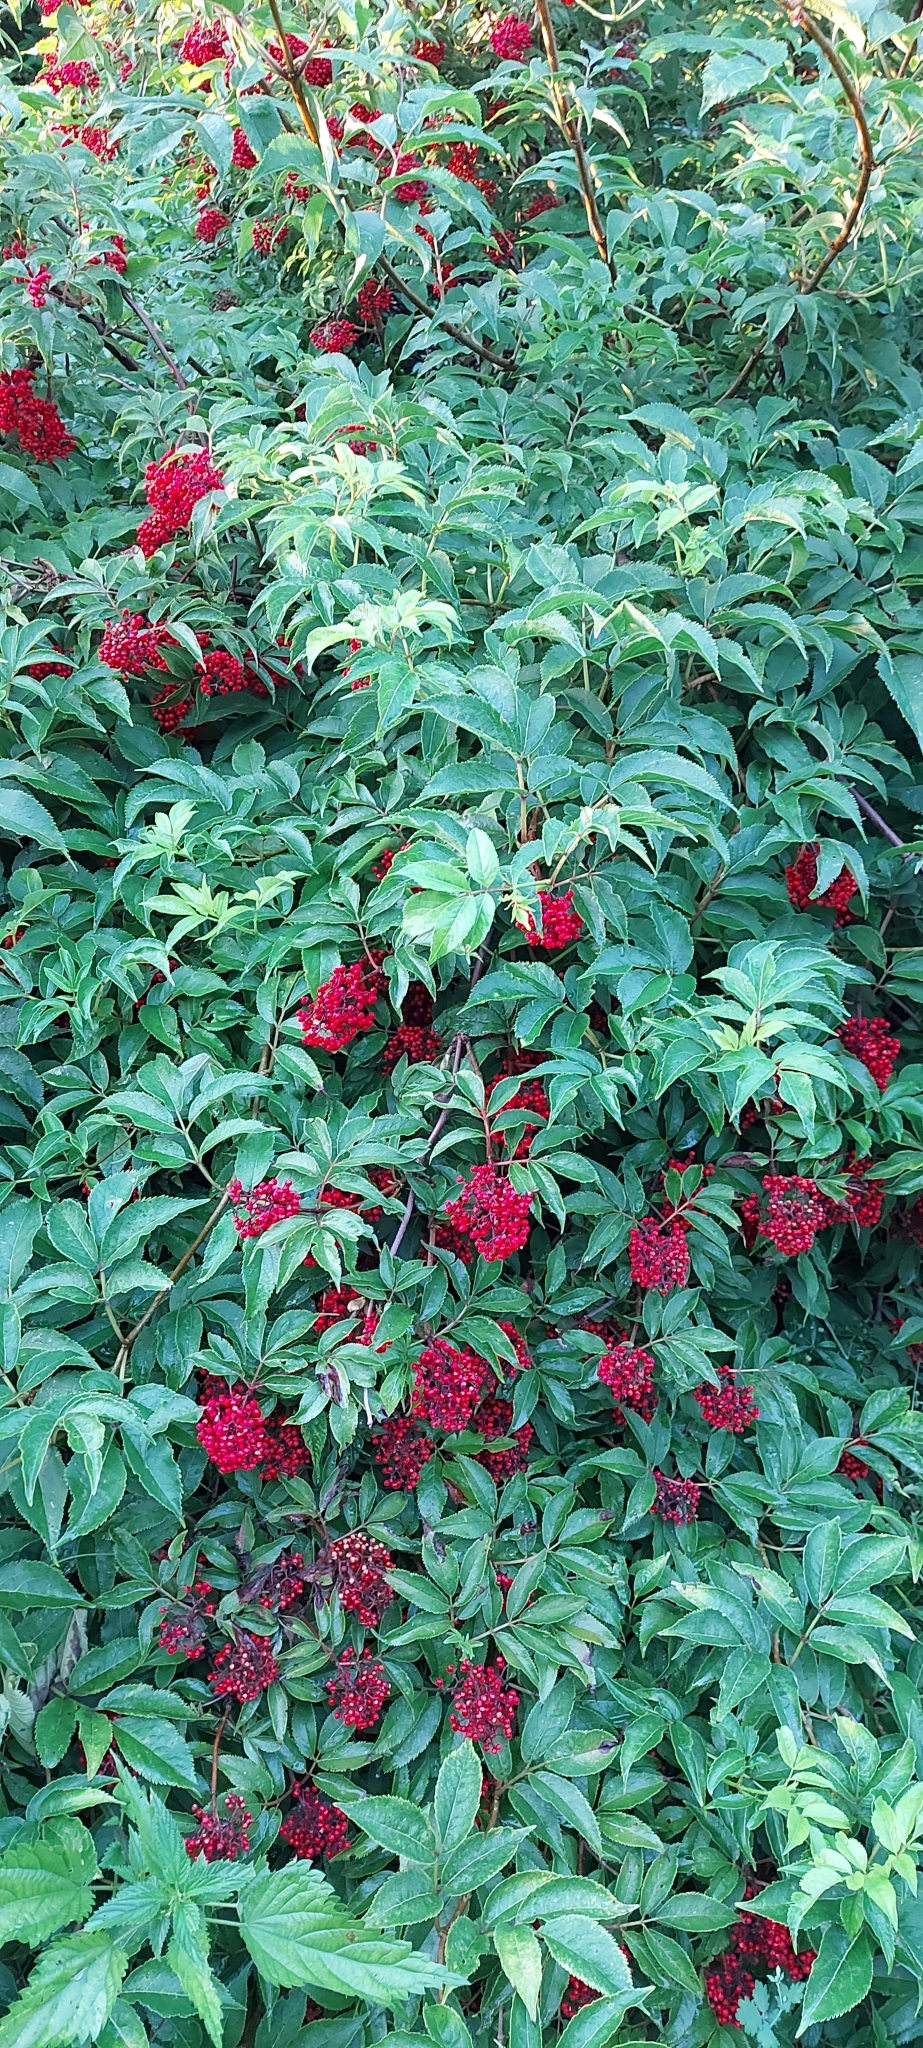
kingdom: Plantae
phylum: Tracheophyta
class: Magnoliopsida
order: Dipsacales
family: Viburnaceae
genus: Sambucus
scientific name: Sambucus racemosa
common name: Red-berried elder
